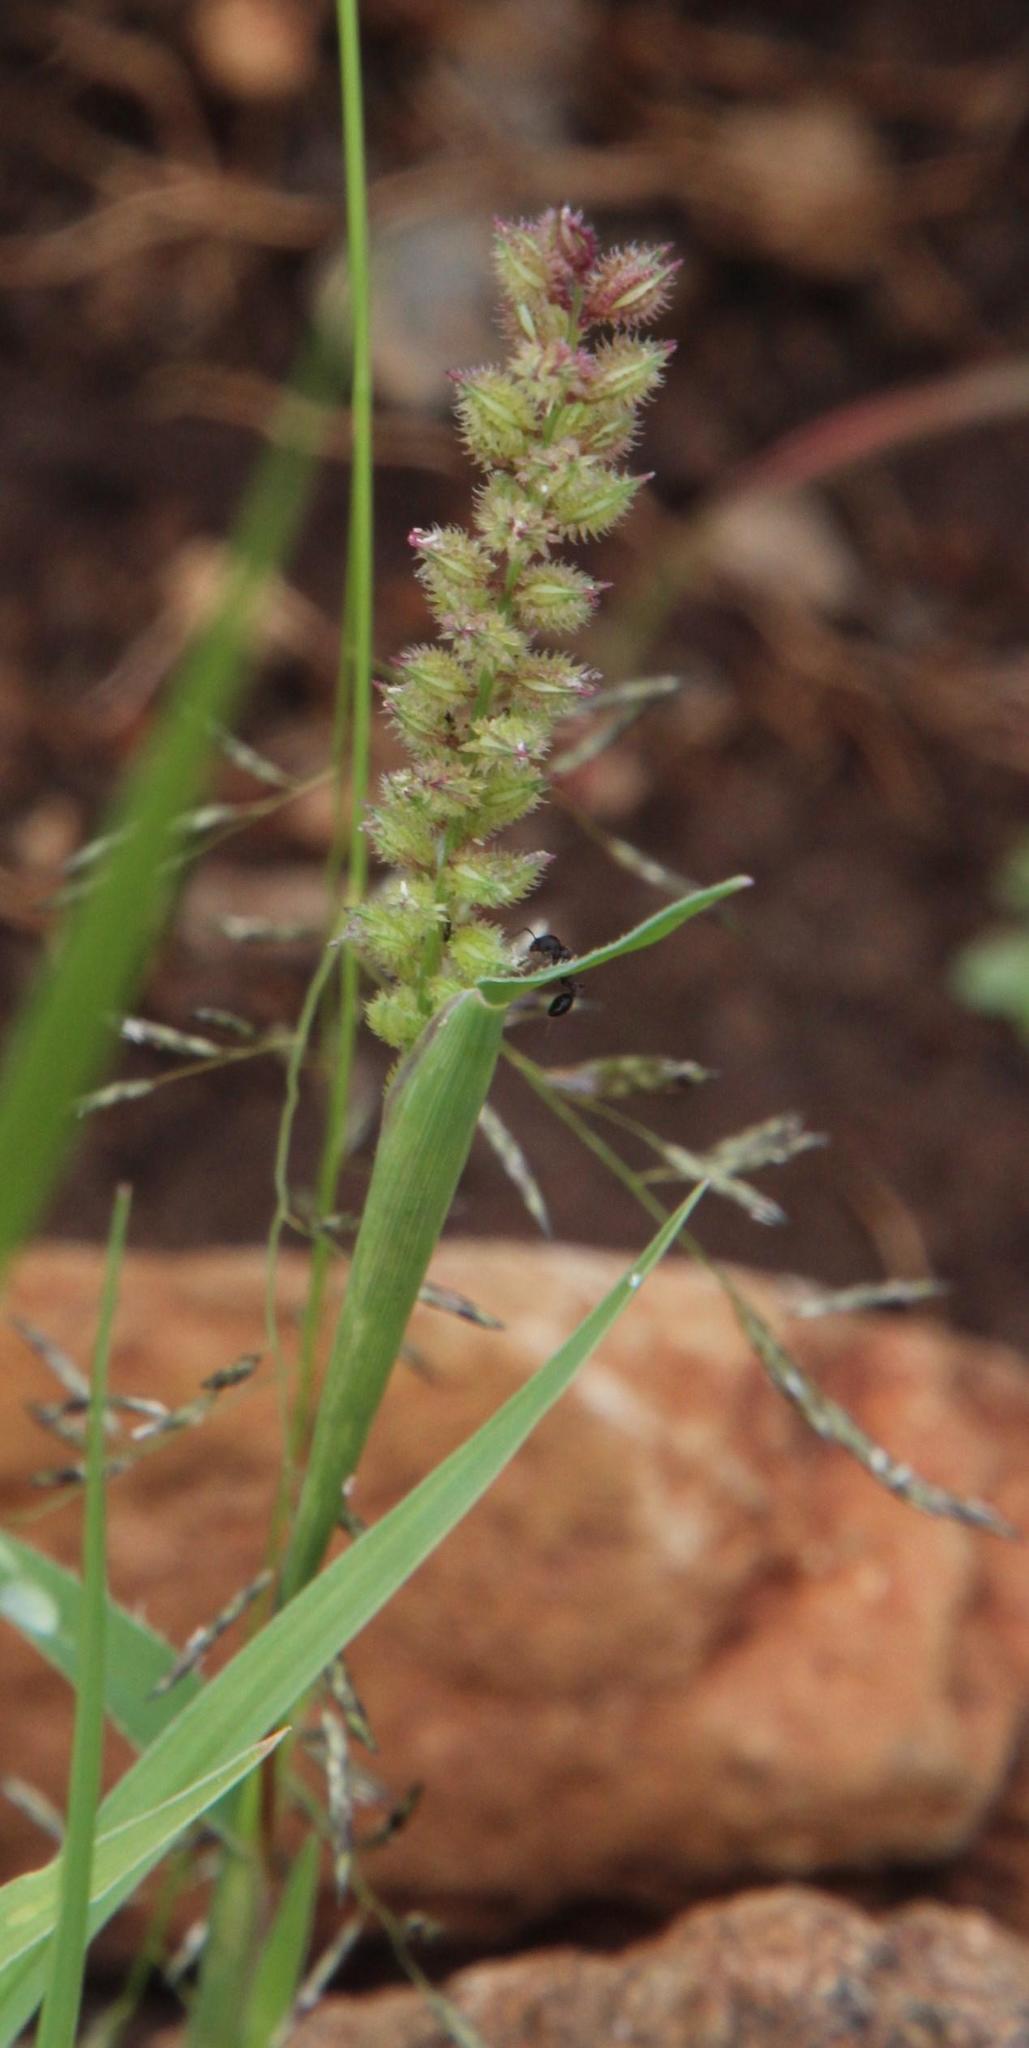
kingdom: Plantae
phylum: Tracheophyta
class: Liliopsida
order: Poales
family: Poaceae
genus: Tragus
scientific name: Tragus berteronianus
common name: African bur-grass
